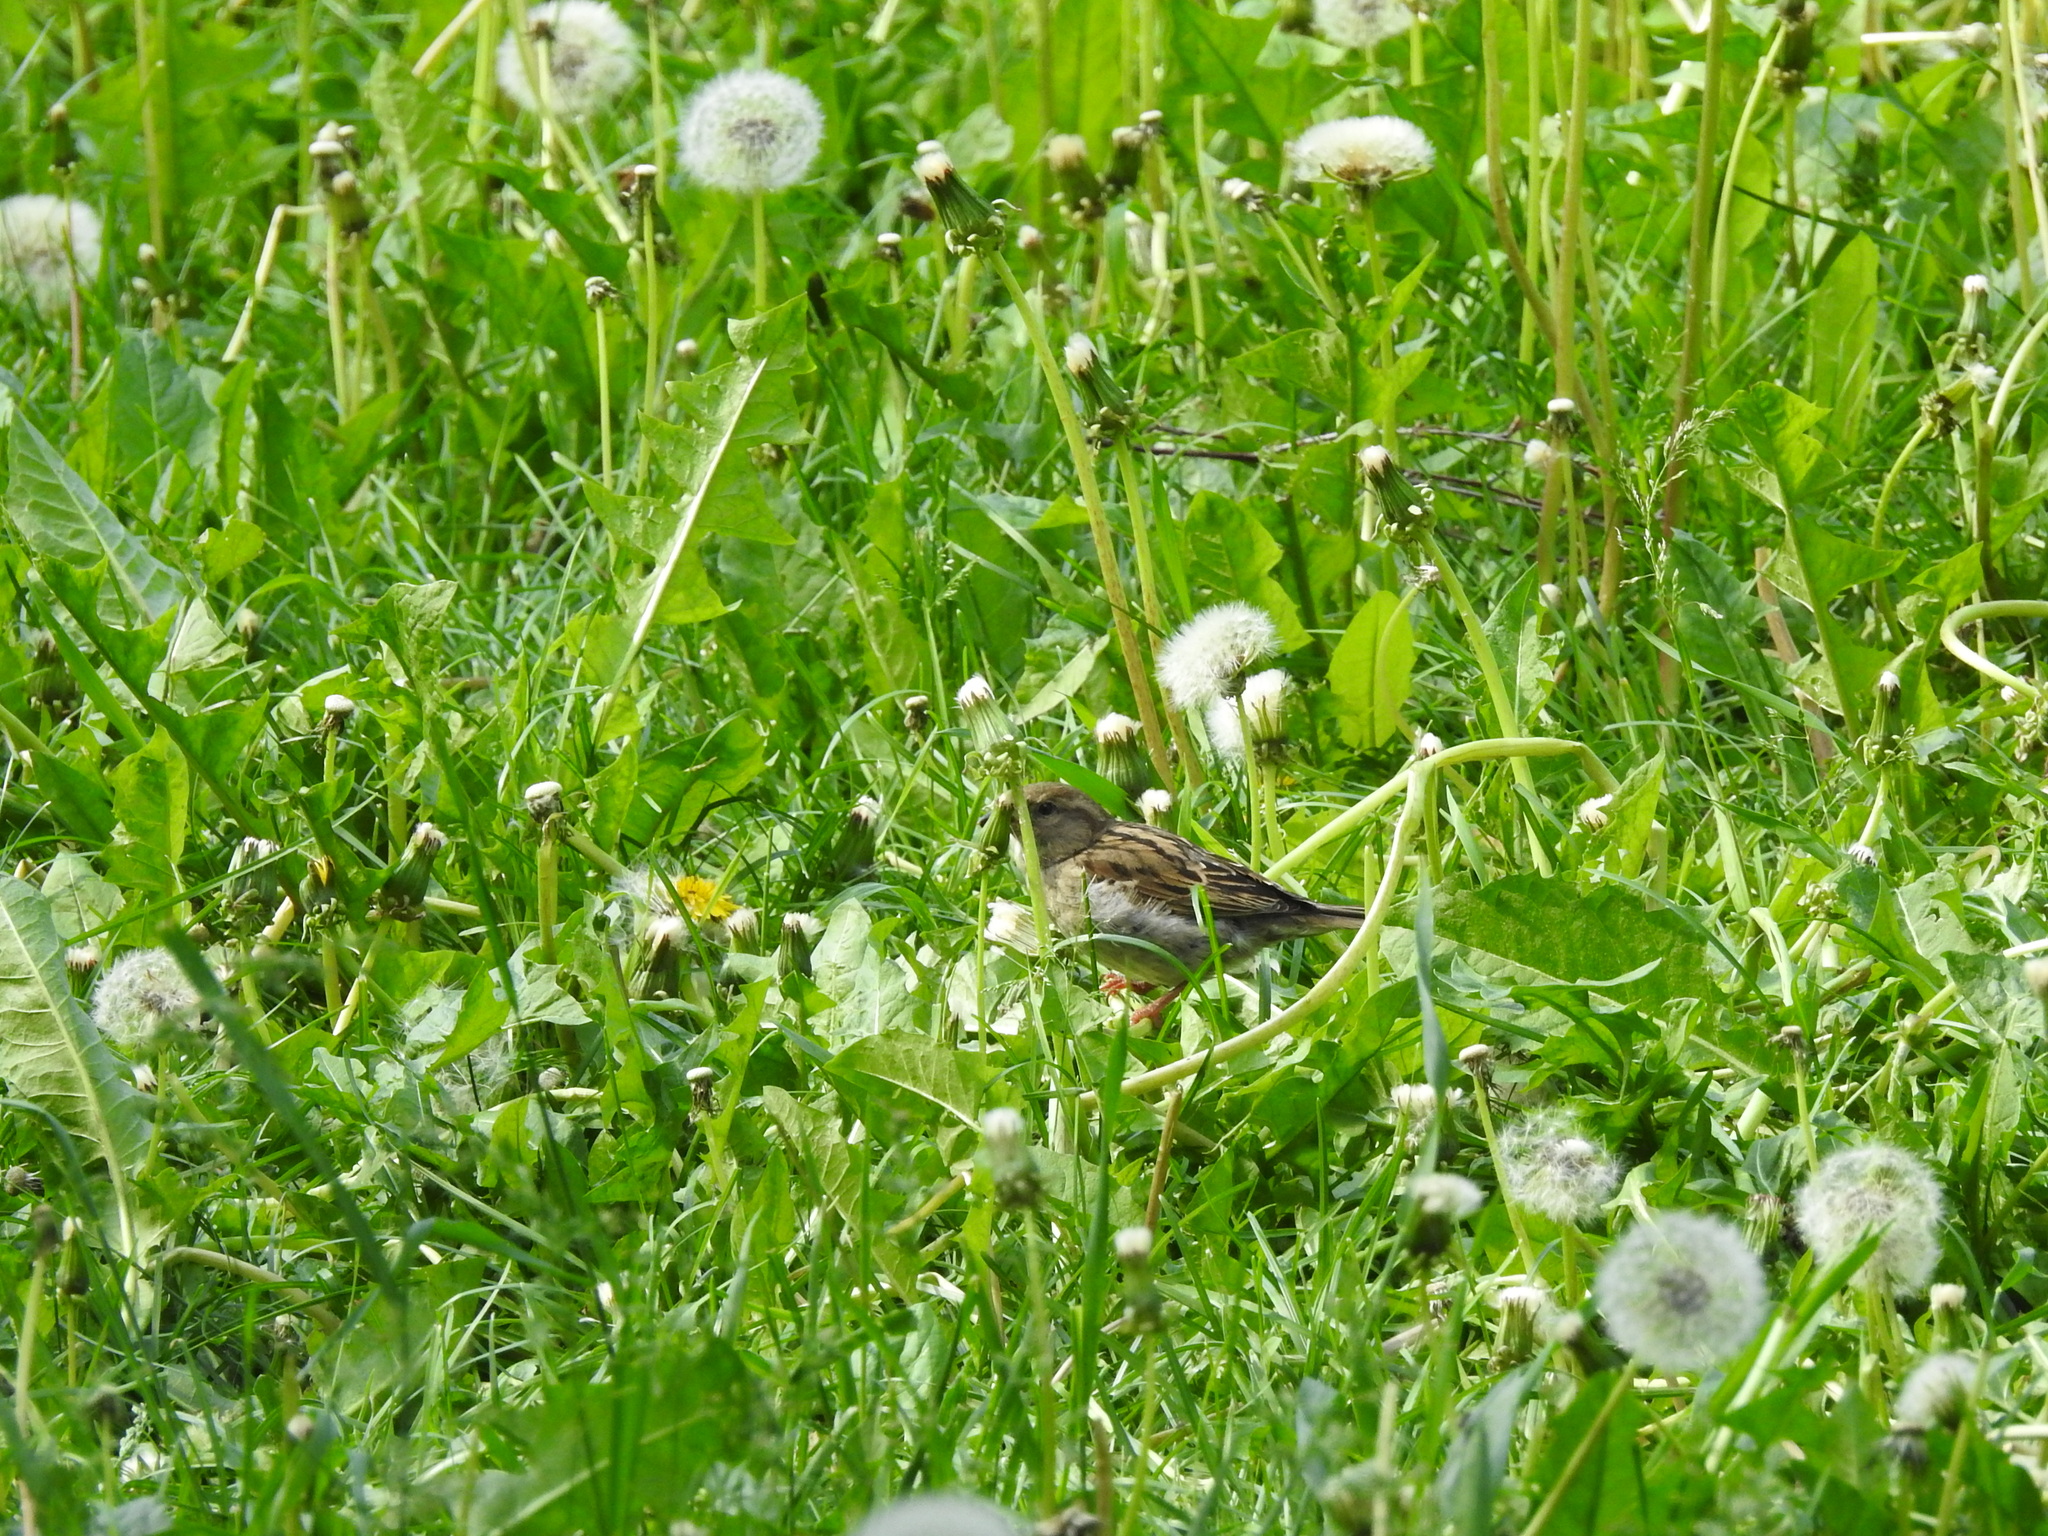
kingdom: Animalia
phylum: Chordata
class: Aves
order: Passeriformes
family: Passeridae
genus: Passer
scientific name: Passer domesticus
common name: House sparrow
